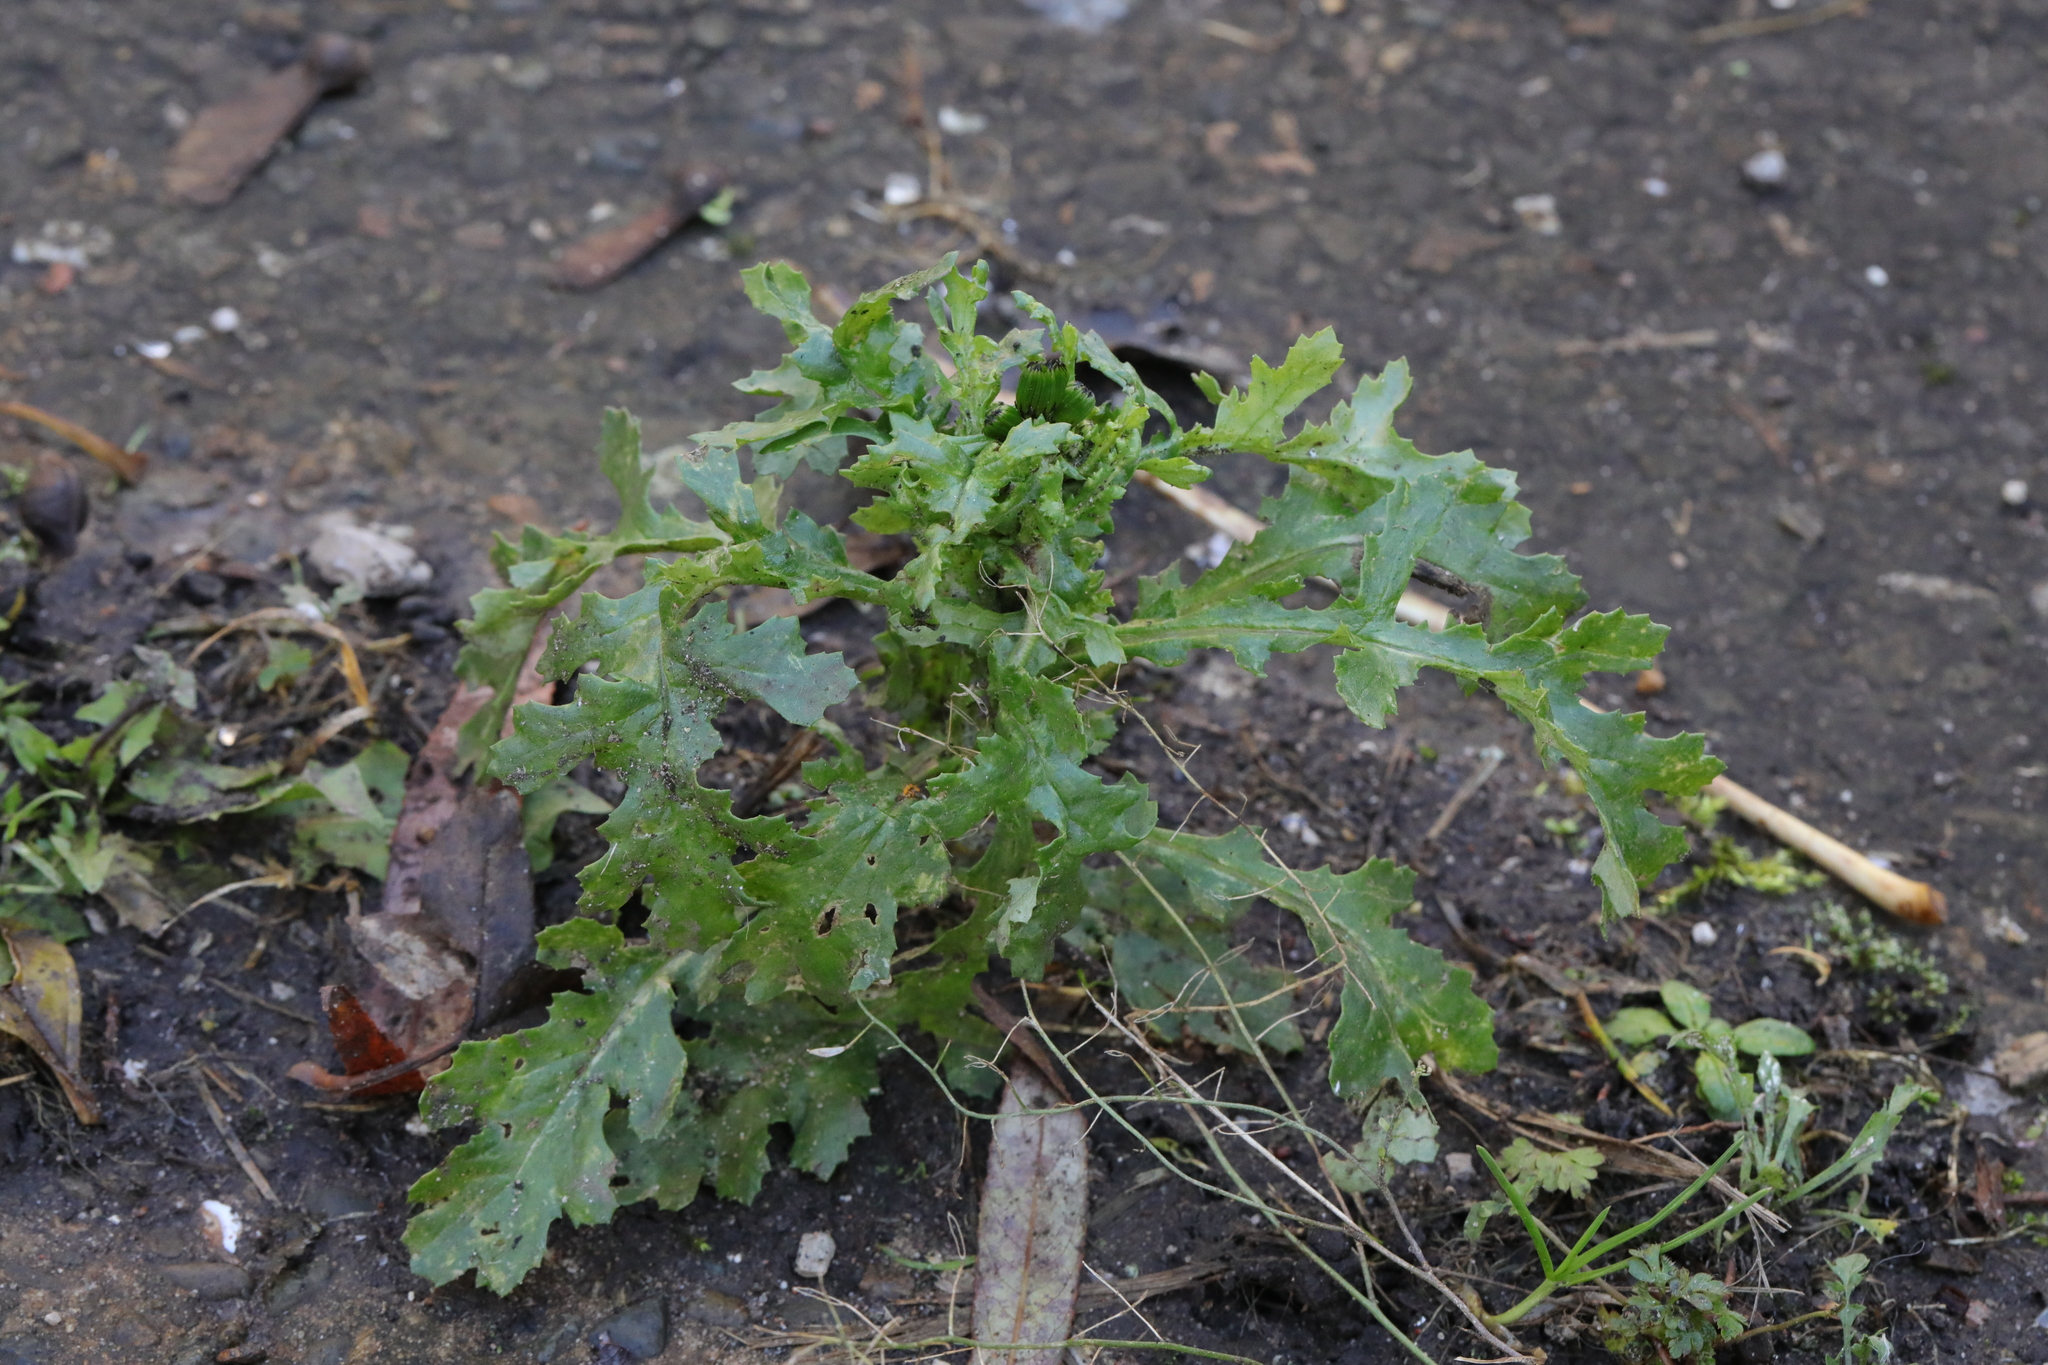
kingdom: Plantae
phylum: Tracheophyta
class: Magnoliopsida
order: Asterales
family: Asteraceae
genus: Senecio
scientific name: Senecio vulgaris
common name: Old-man-in-the-spring
